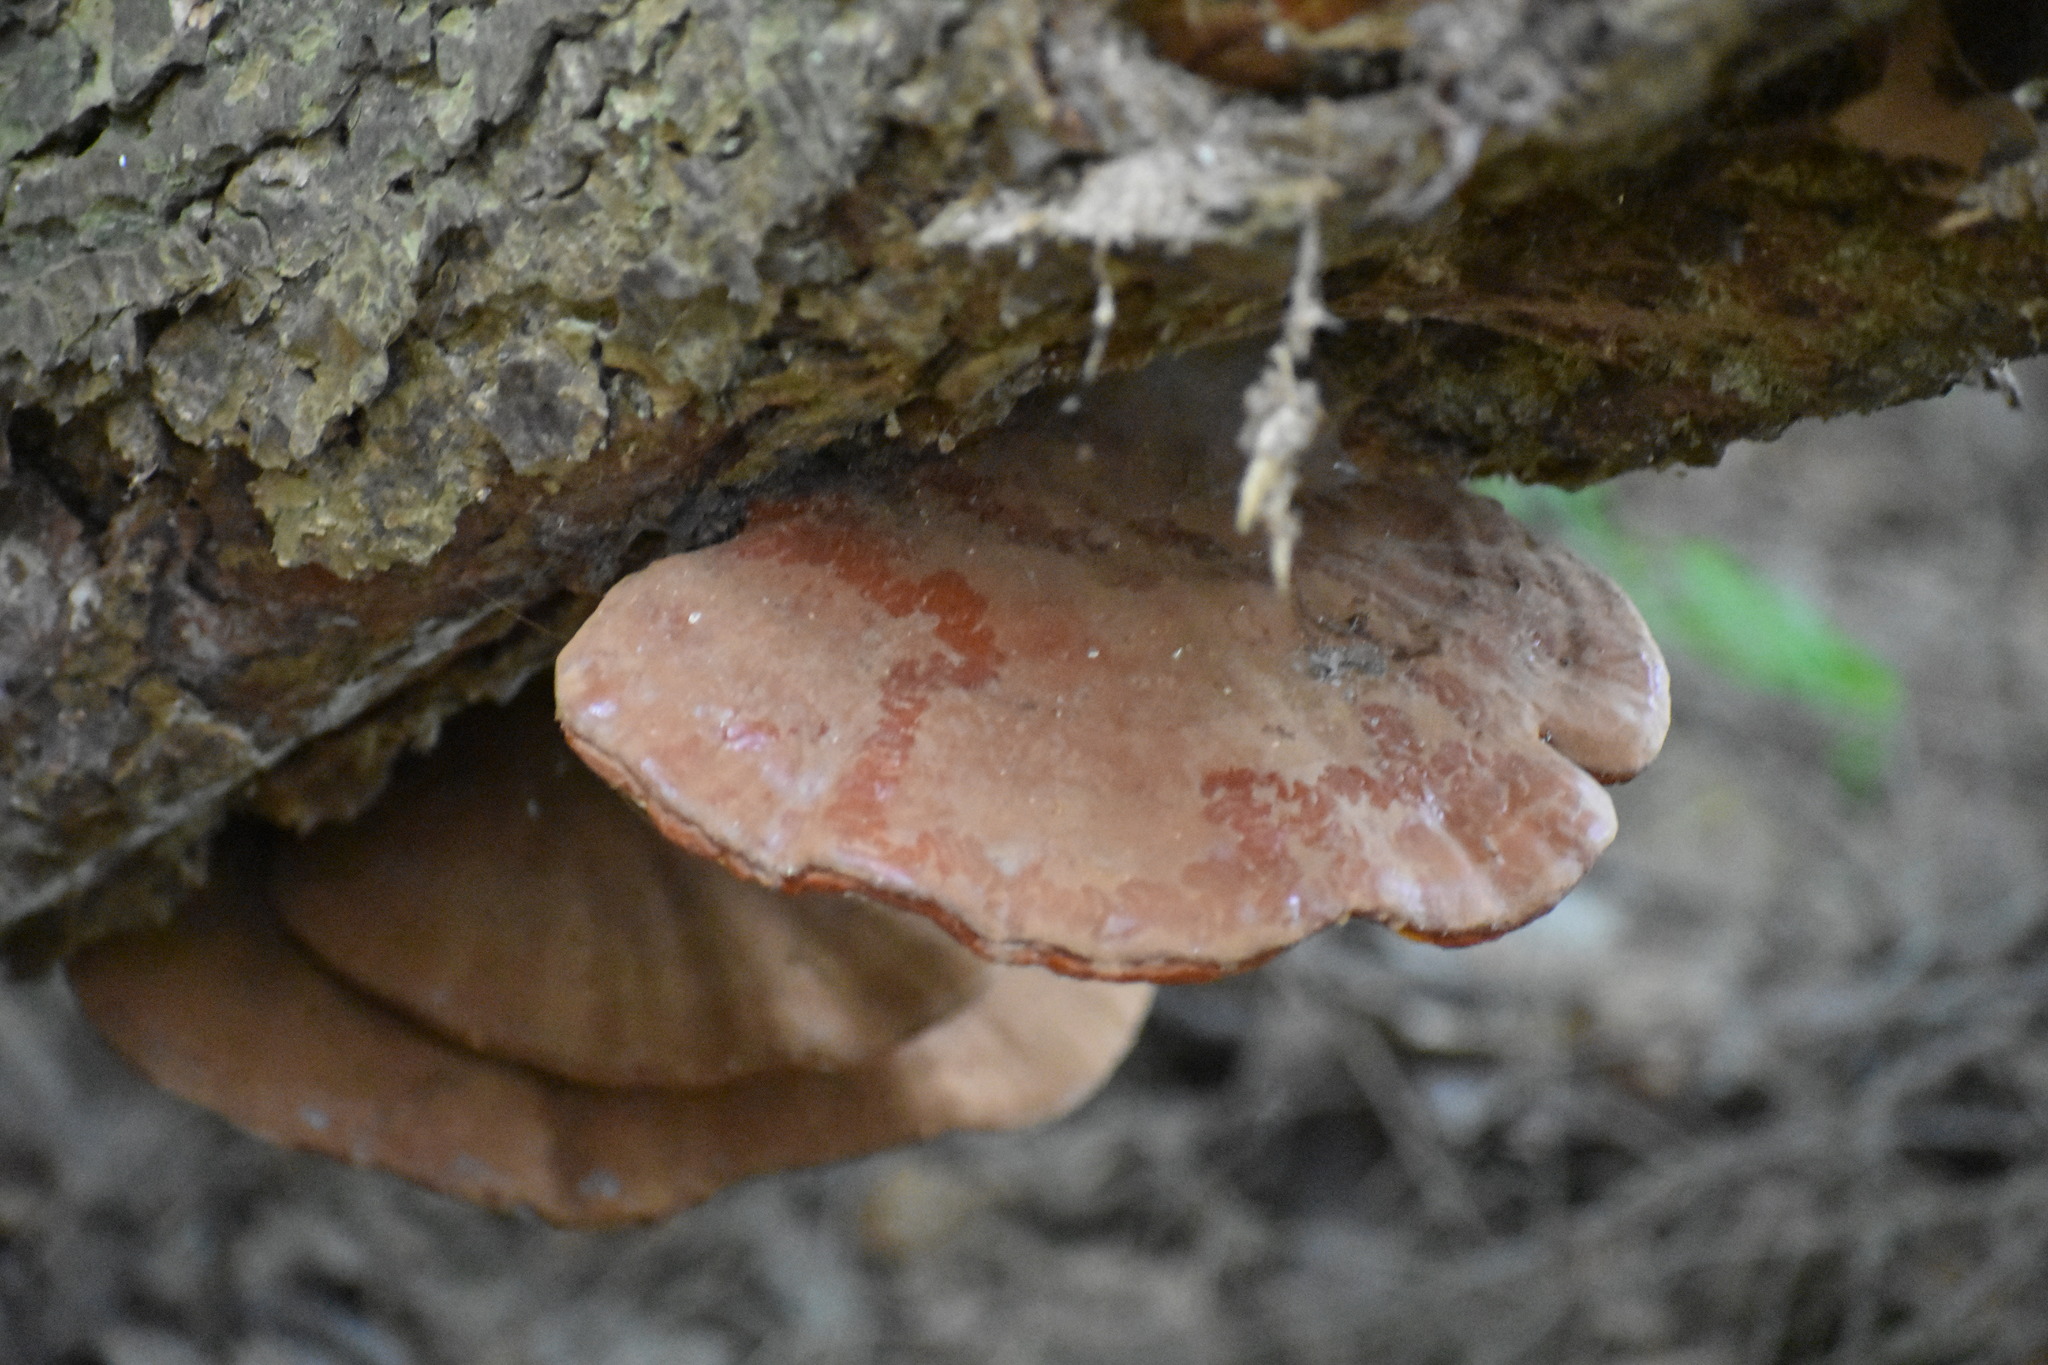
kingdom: Fungi
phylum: Basidiomycota
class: Agaricomycetes
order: Polyporales
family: Polyporaceae
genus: Ganoderma
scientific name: Ganoderma tsugae
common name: Hemlock varnish shelf
